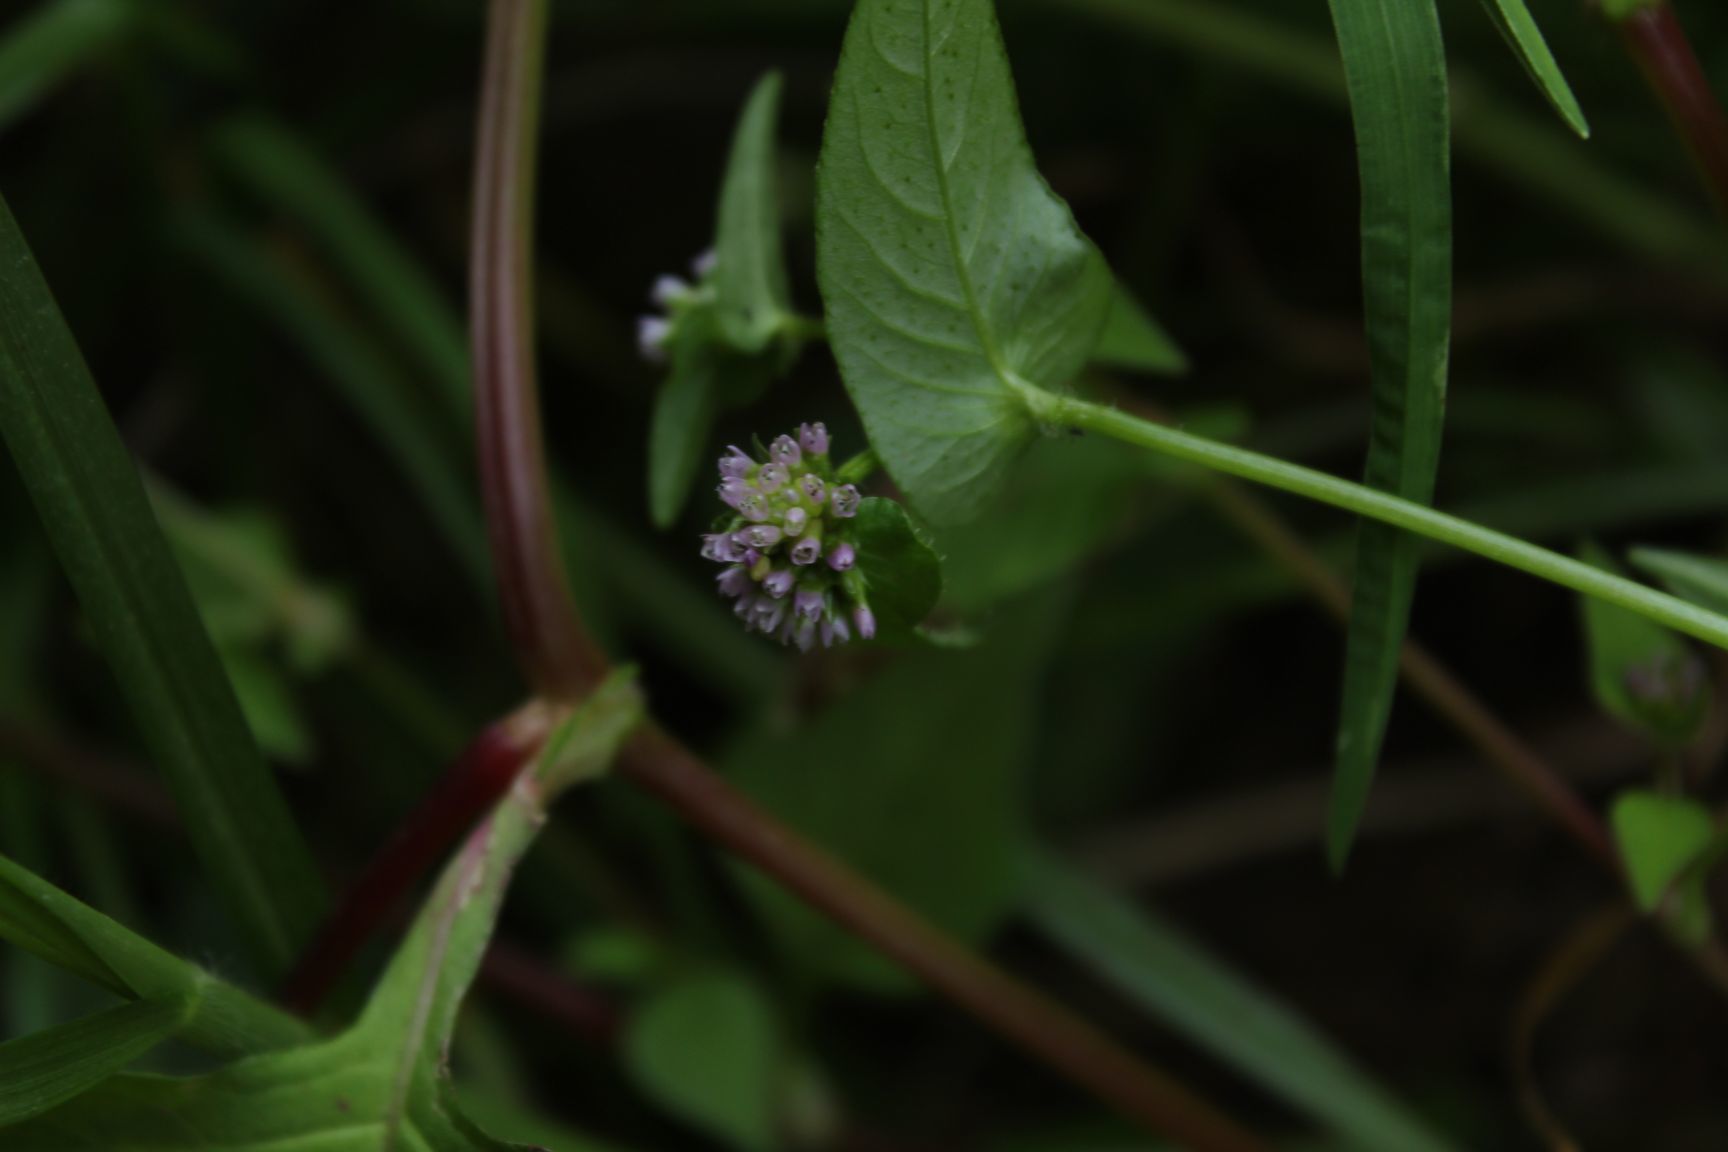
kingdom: Plantae
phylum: Tracheophyta
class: Magnoliopsida
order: Caryophyllales
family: Polygonaceae
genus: Persicaria
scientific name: Persicaria nepalensis
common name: Nepal persicaria
